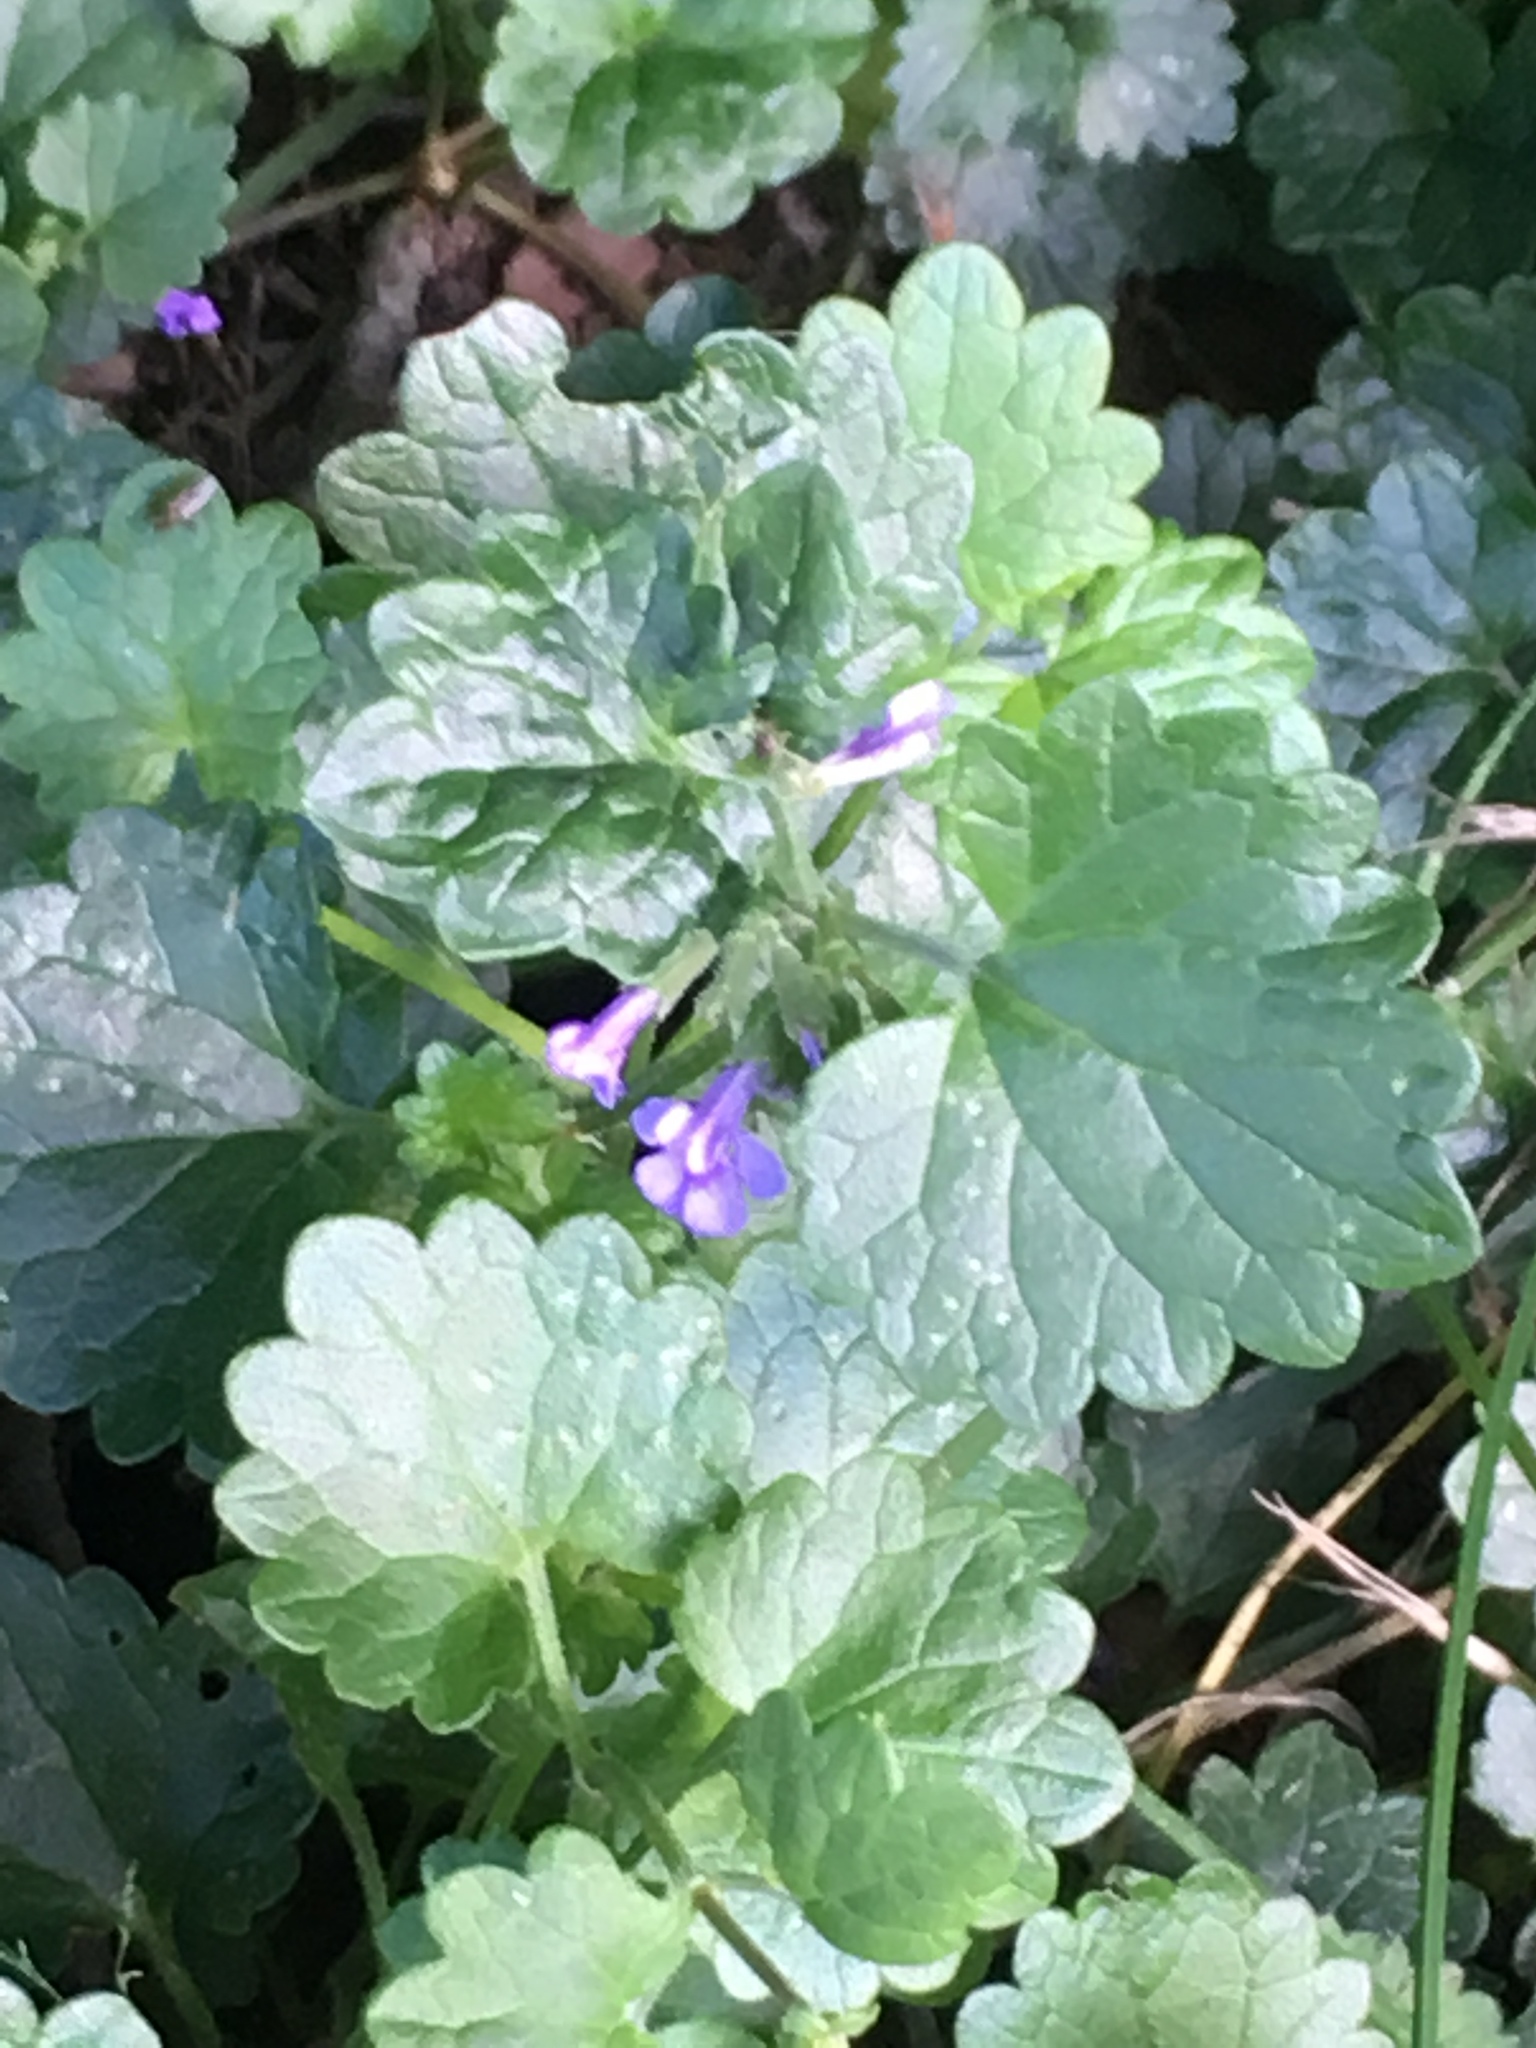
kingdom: Plantae
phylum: Tracheophyta
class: Magnoliopsida
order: Lamiales
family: Lamiaceae
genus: Glechoma
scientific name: Glechoma hederacea
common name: Ground ivy
